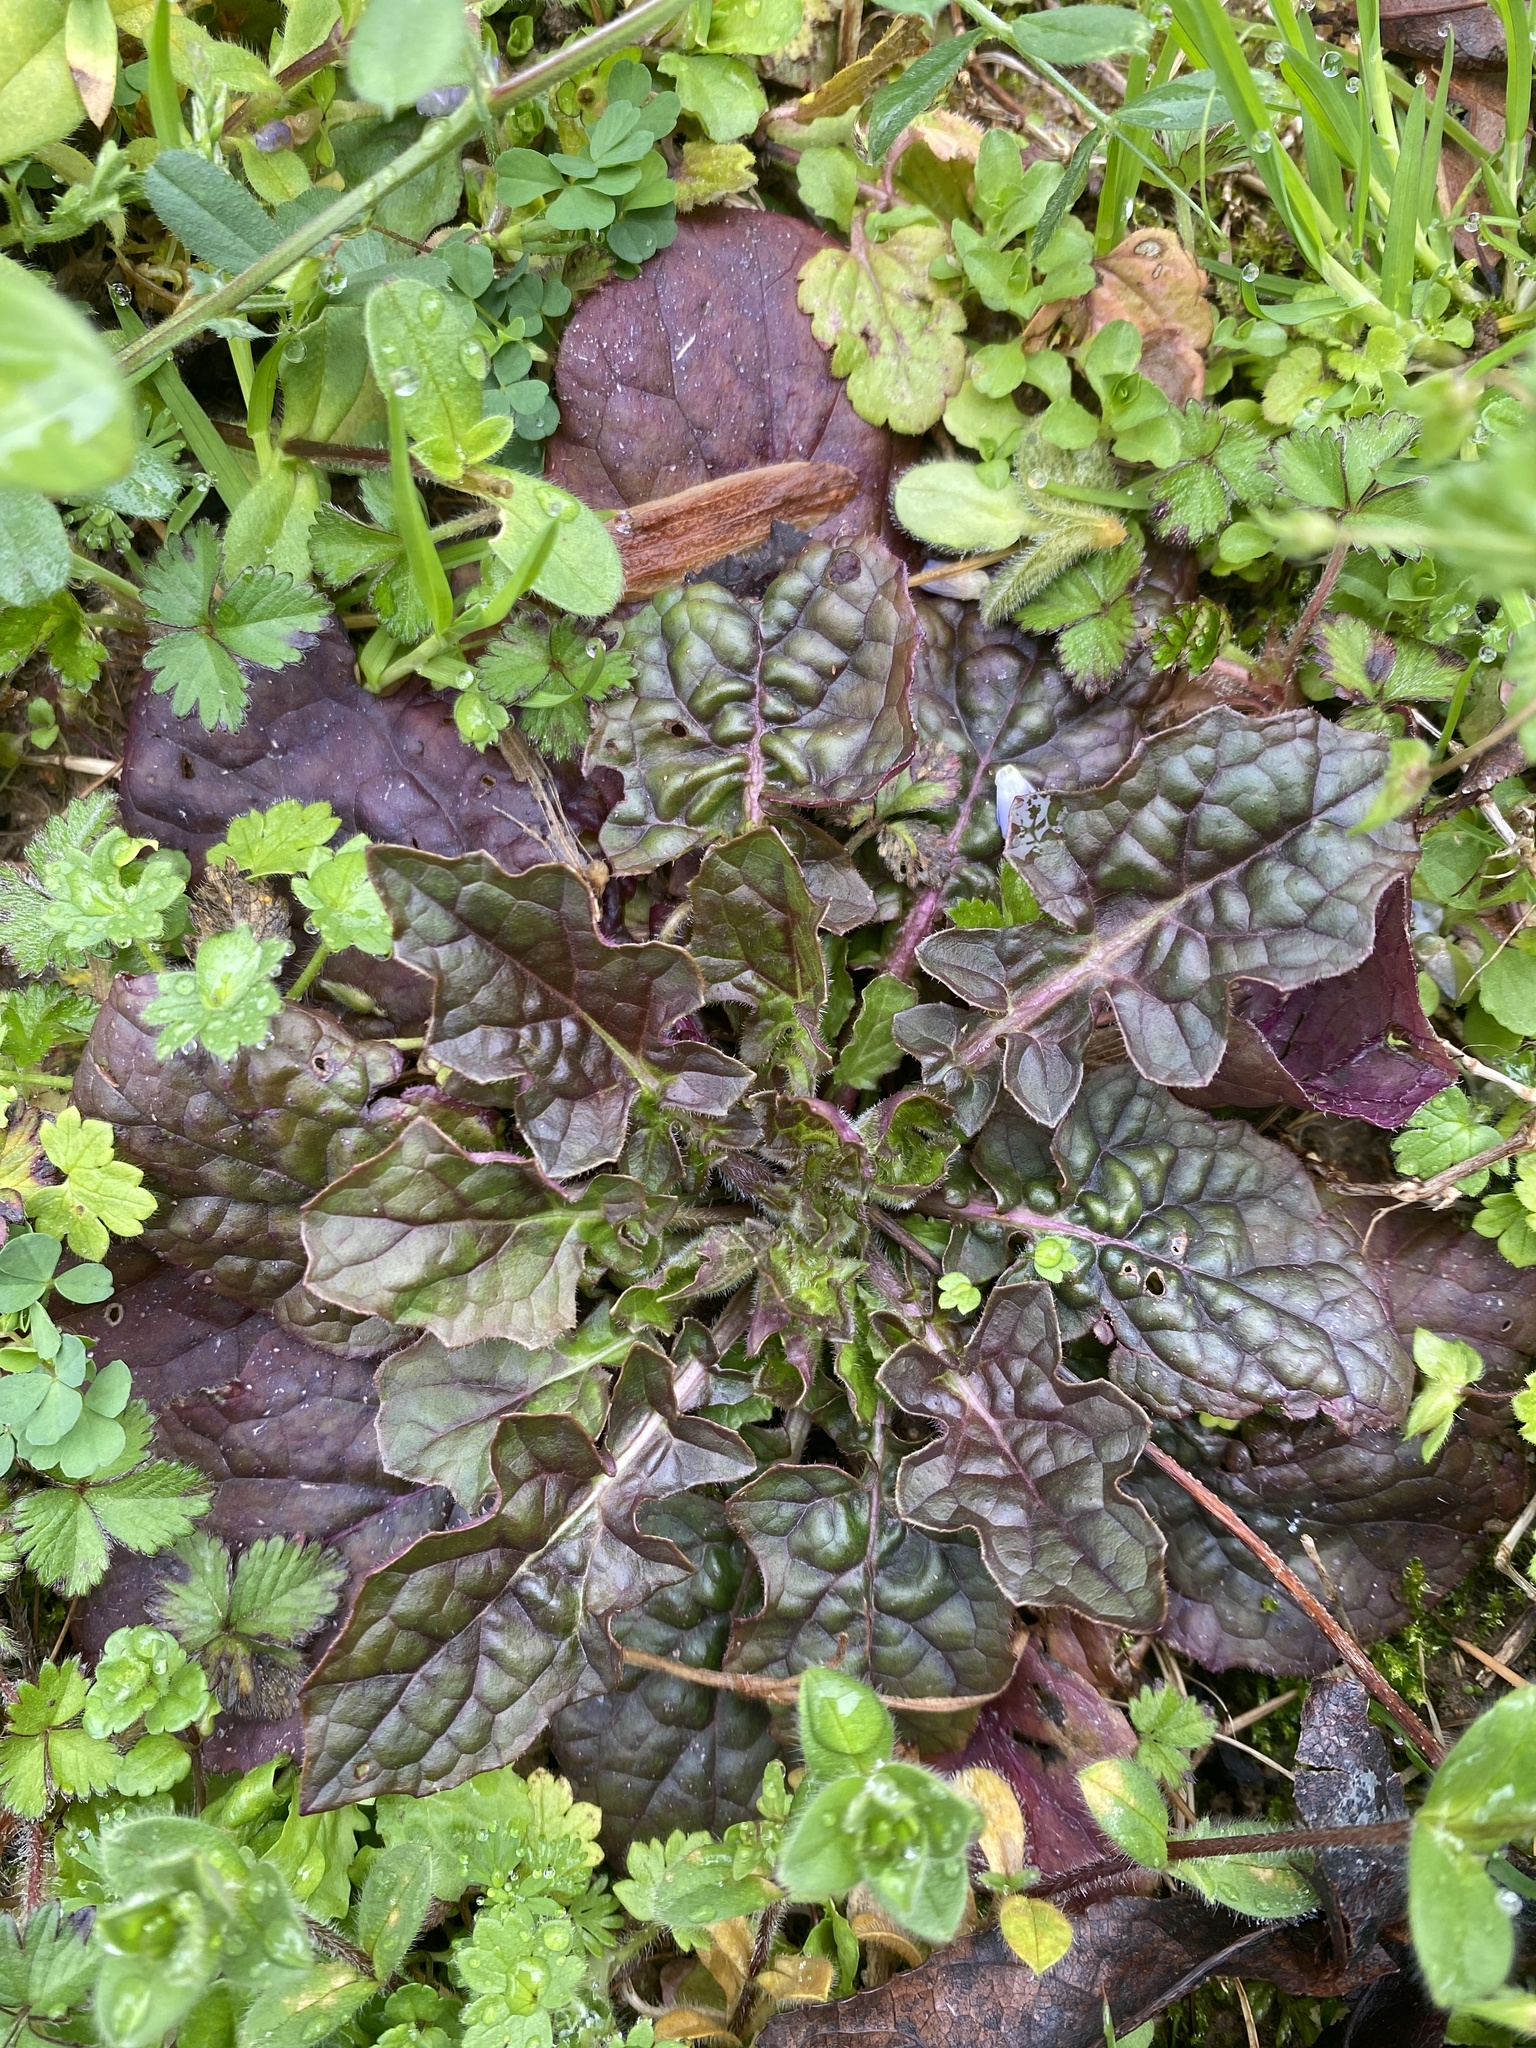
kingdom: Plantae
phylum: Tracheophyta
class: Magnoliopsida
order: Lamiales
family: Lamiaceae
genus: Salvia
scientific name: Salvia lyrata
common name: Cancerweed
